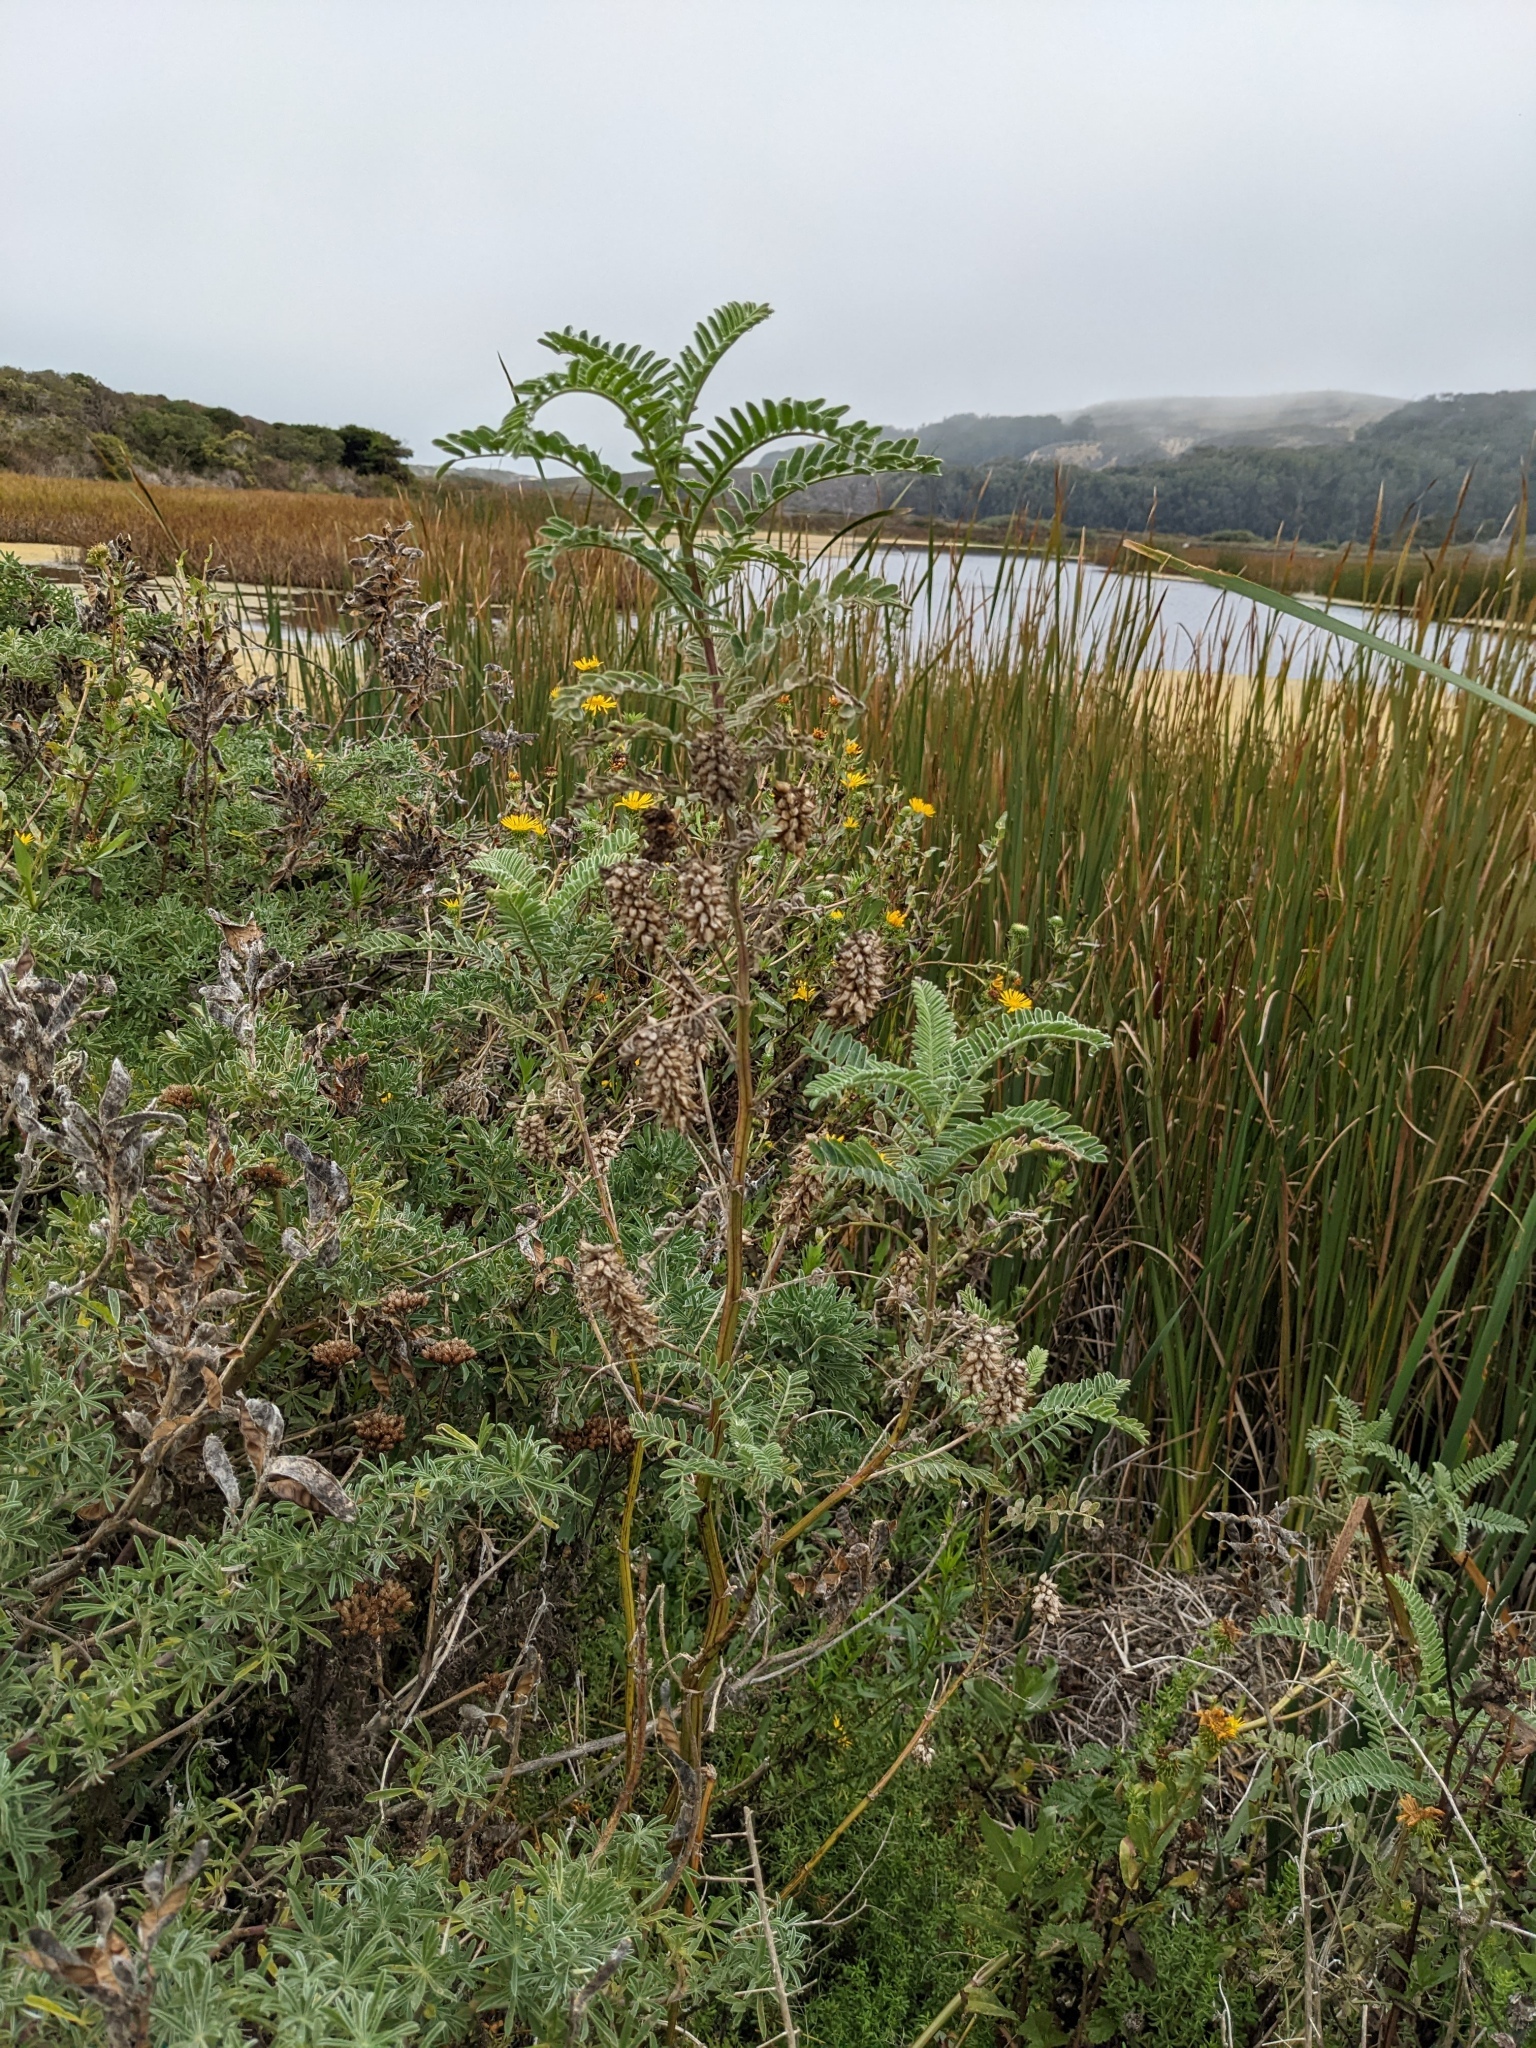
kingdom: Plantae
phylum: Tracheophyta
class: Magnoliopsida
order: Fabales
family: Fabaceae
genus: Astragalus
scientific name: Astragalus pycnostachyus
